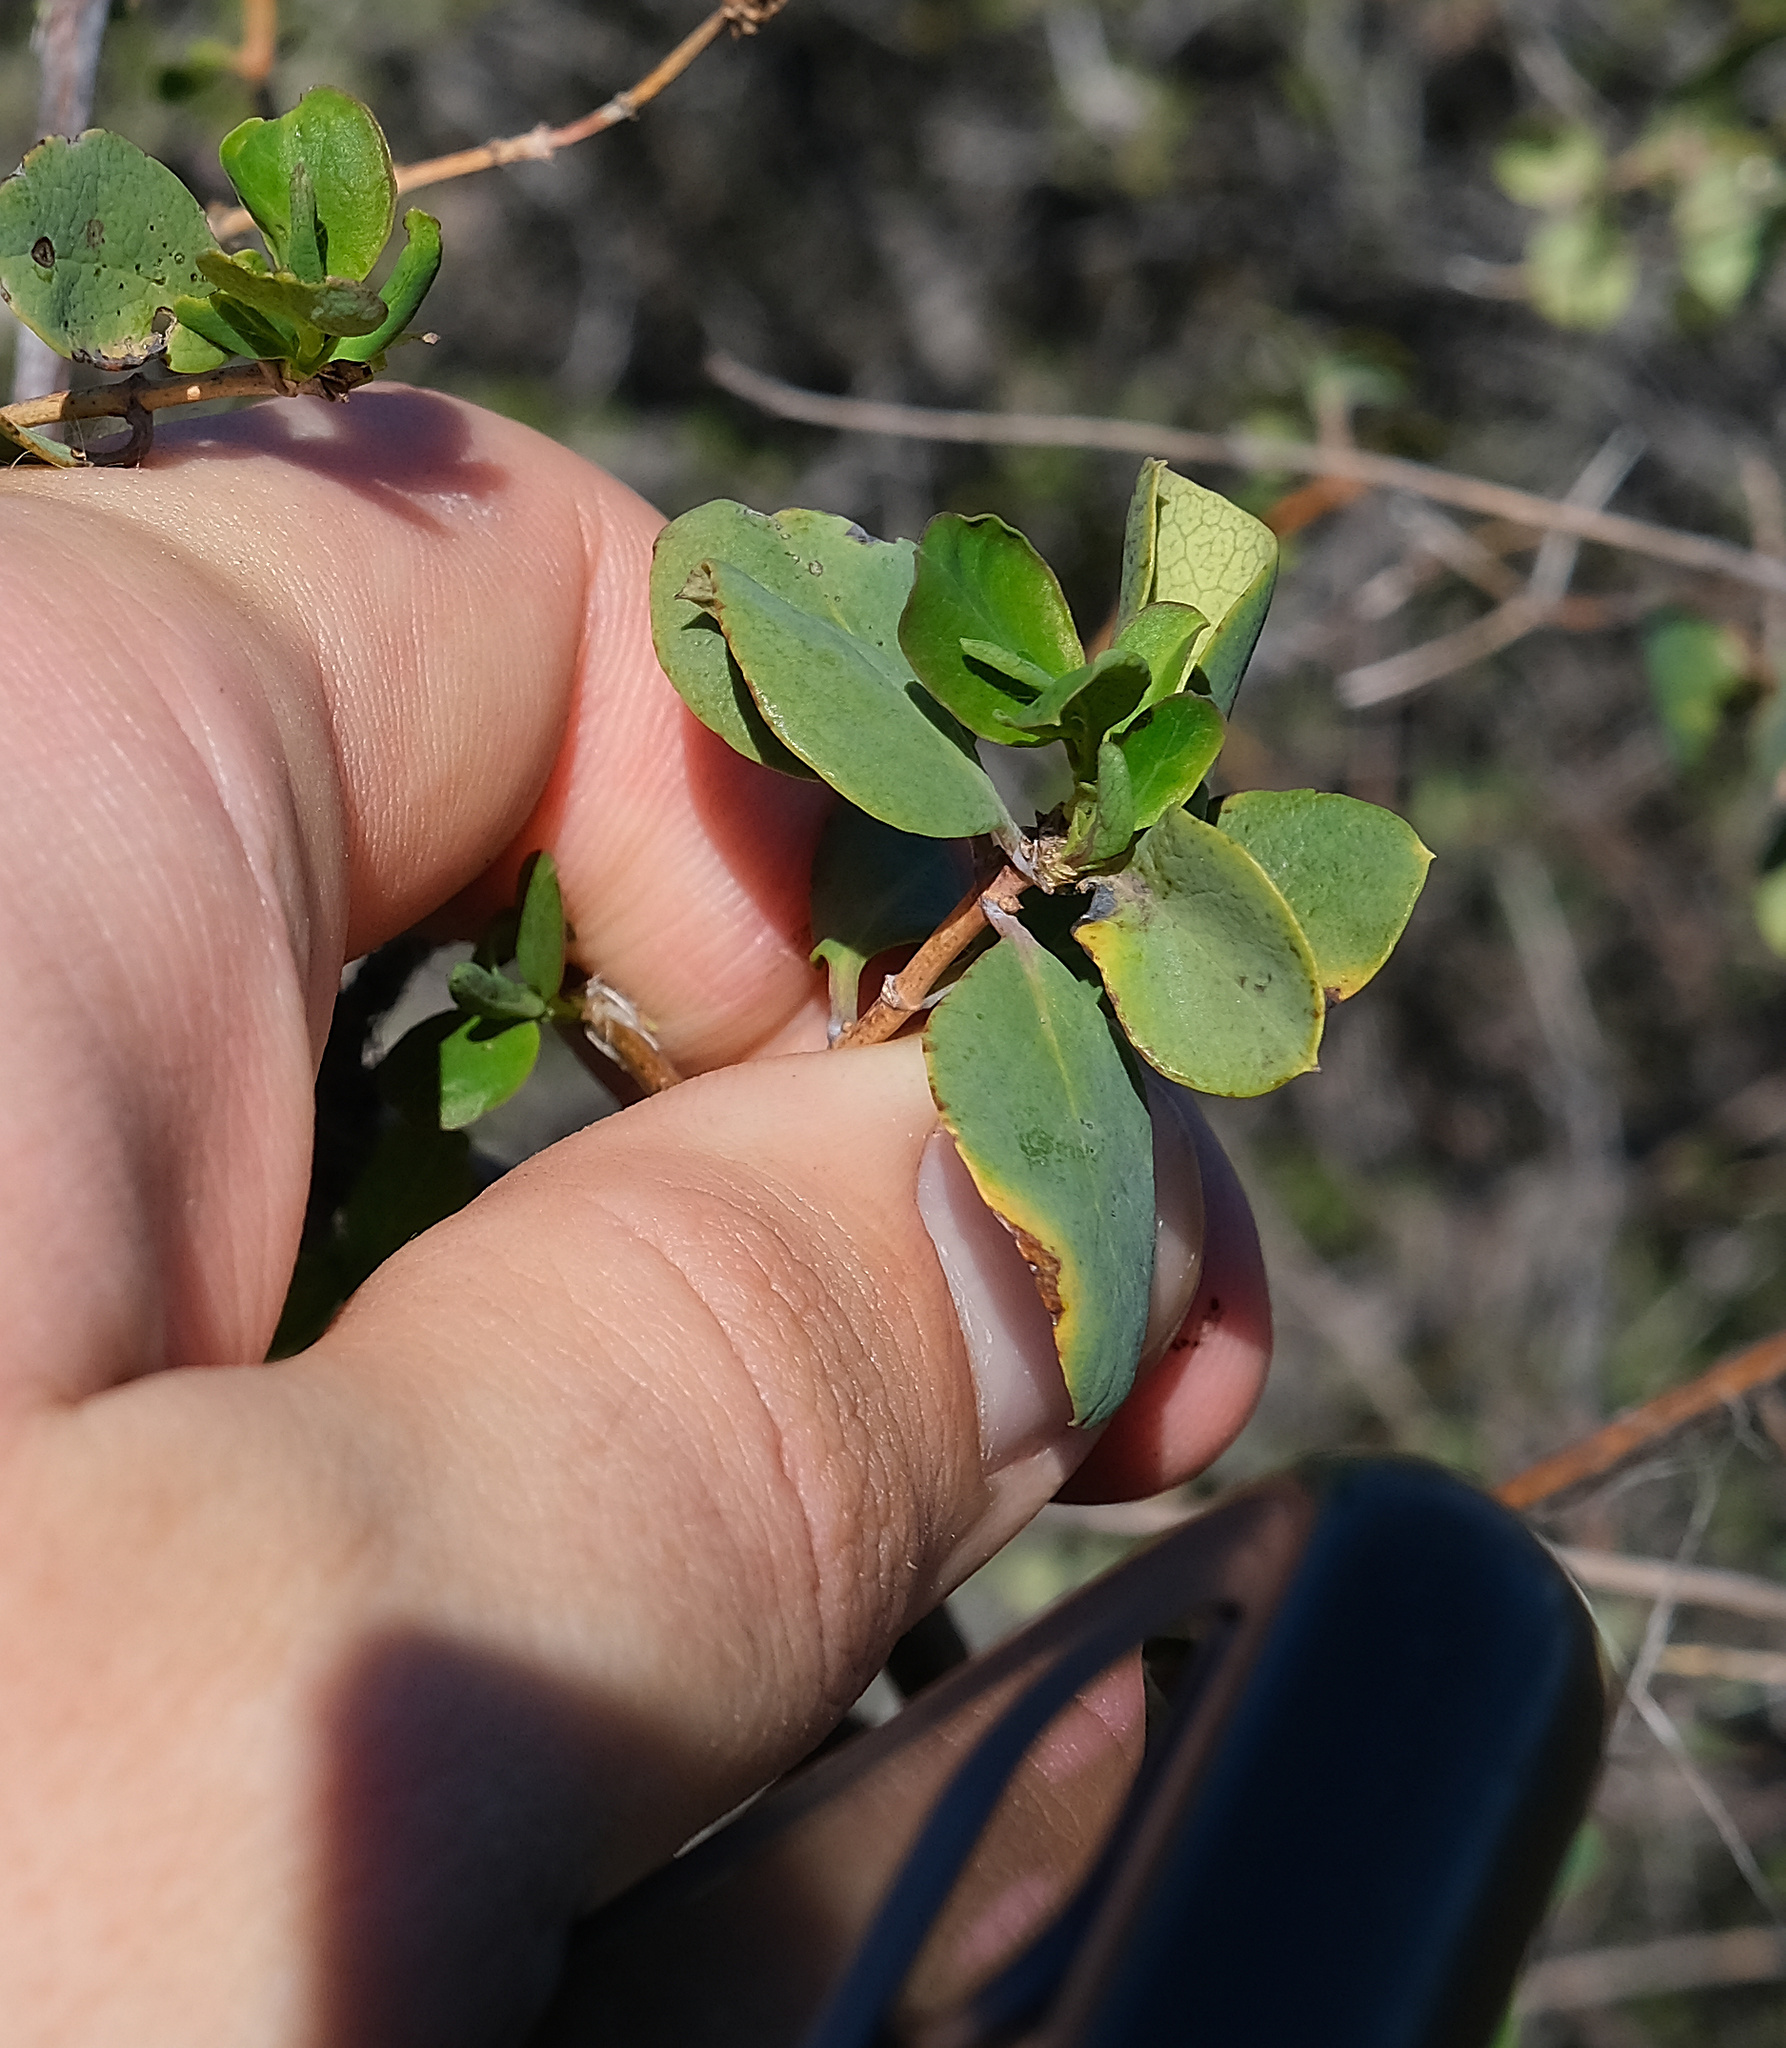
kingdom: Plantae
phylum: Tracheophyta
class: Magnoliopsida
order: Dipsacales
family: Caprifoliaceae
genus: Lonicera
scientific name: Lonicera interrupta
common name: Chaparral honeysuckle
